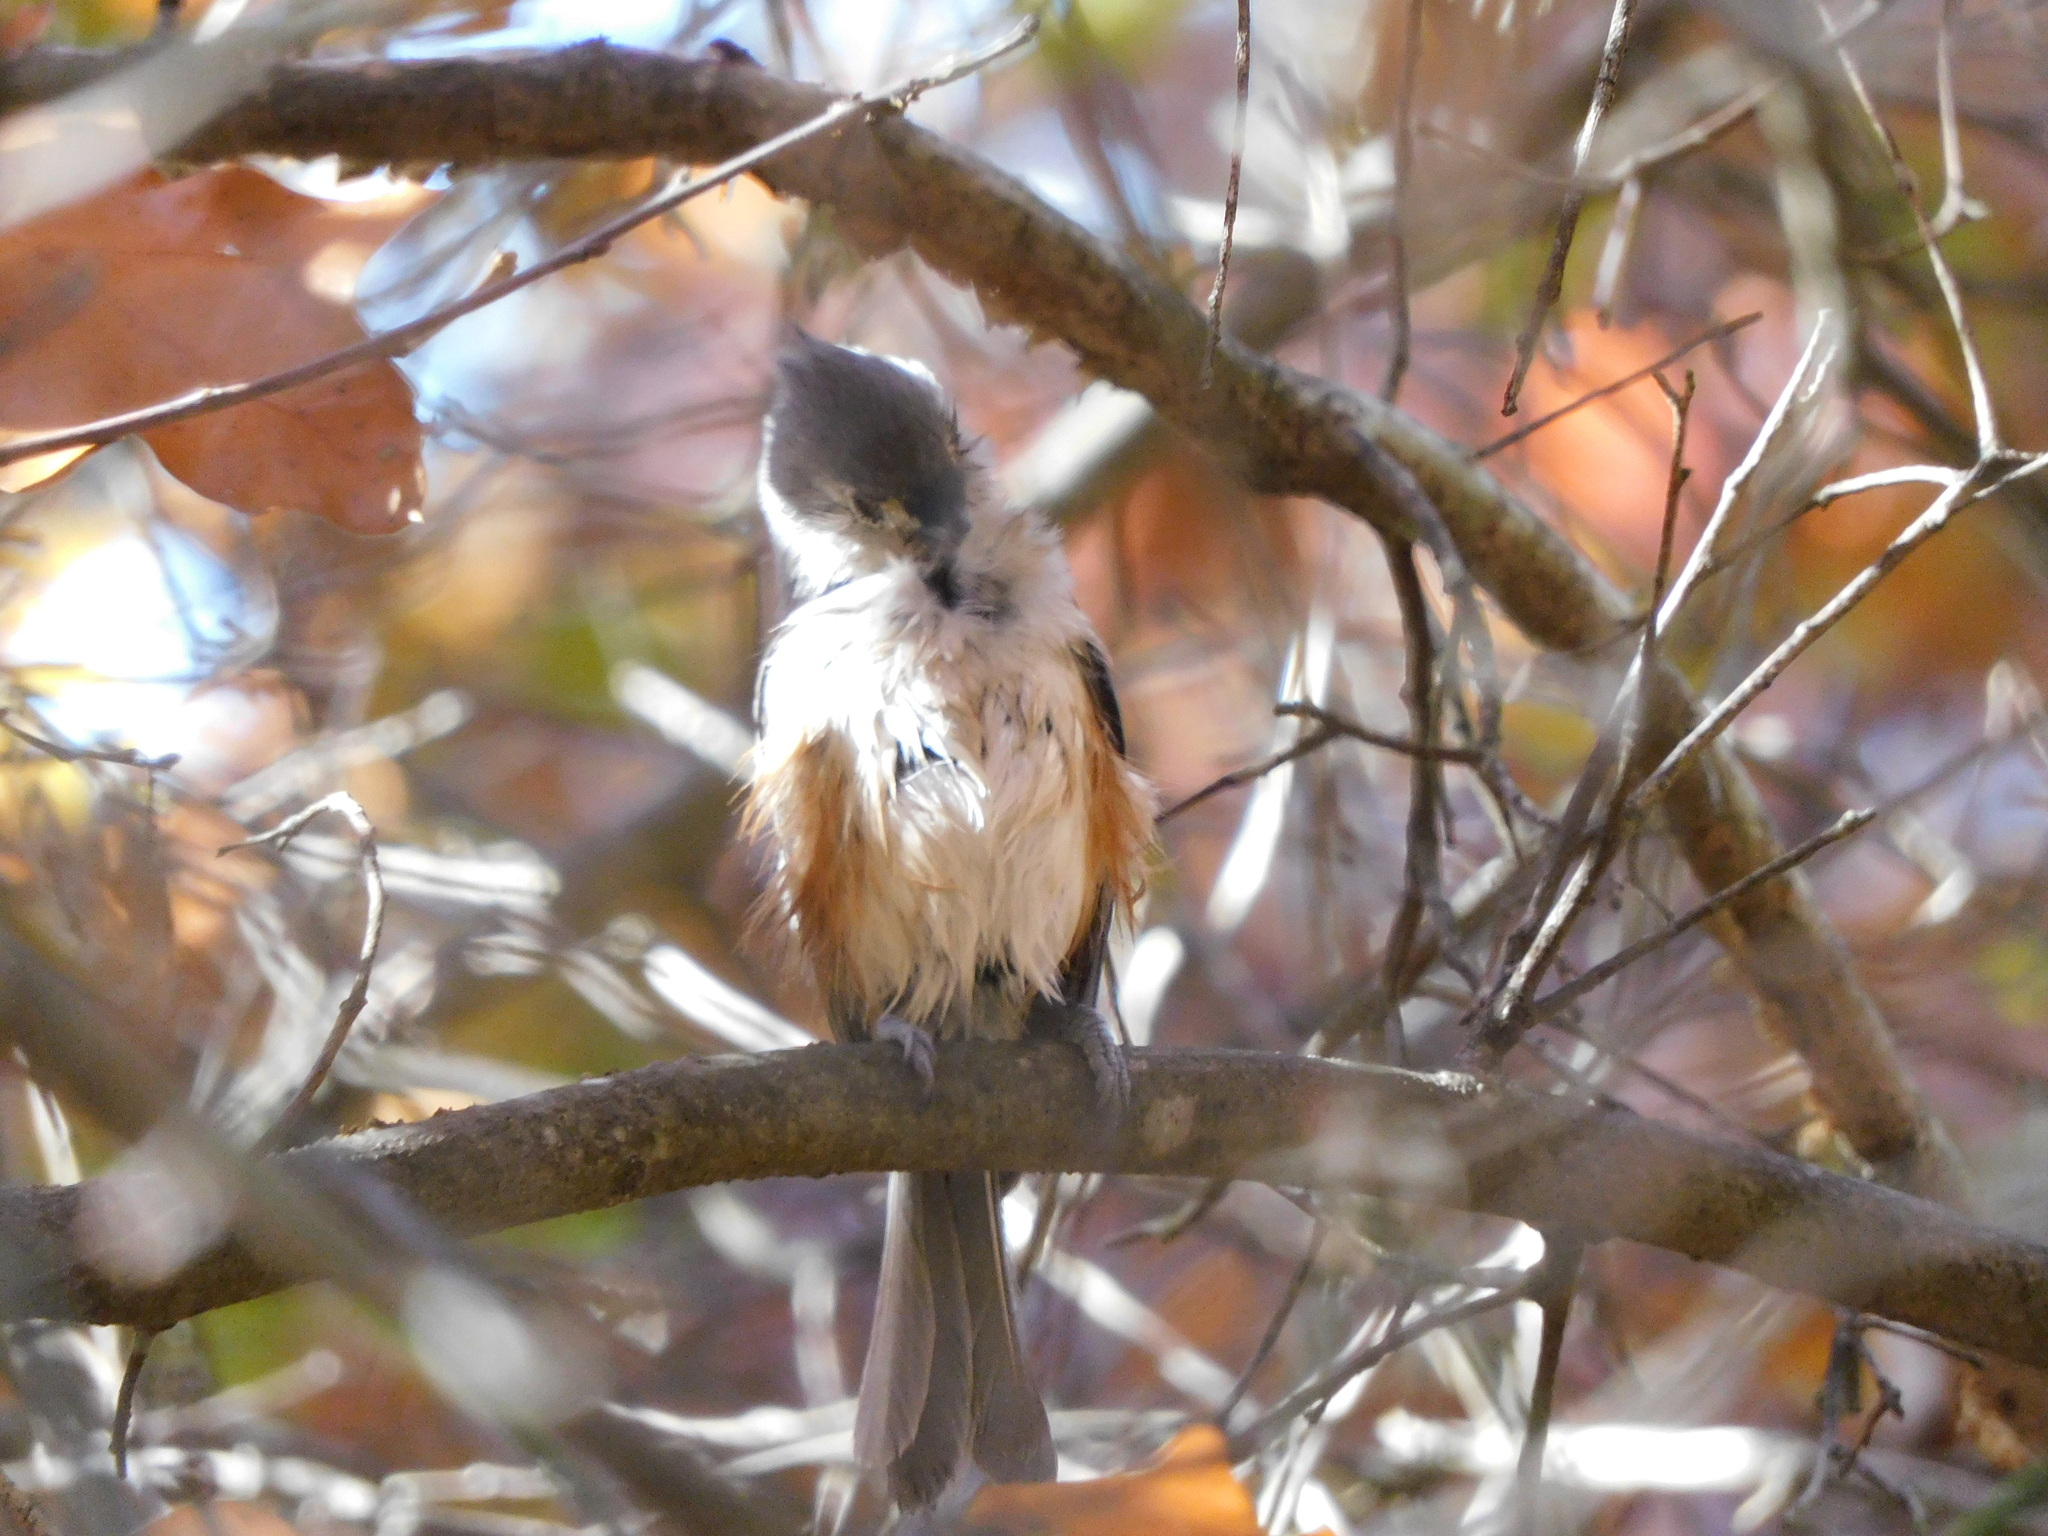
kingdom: Animalia
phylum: Chordata
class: Aves
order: Passeriformes
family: Paridae
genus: Baeolophus
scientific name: Baeolophus bicolor
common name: Tufted titmouse
